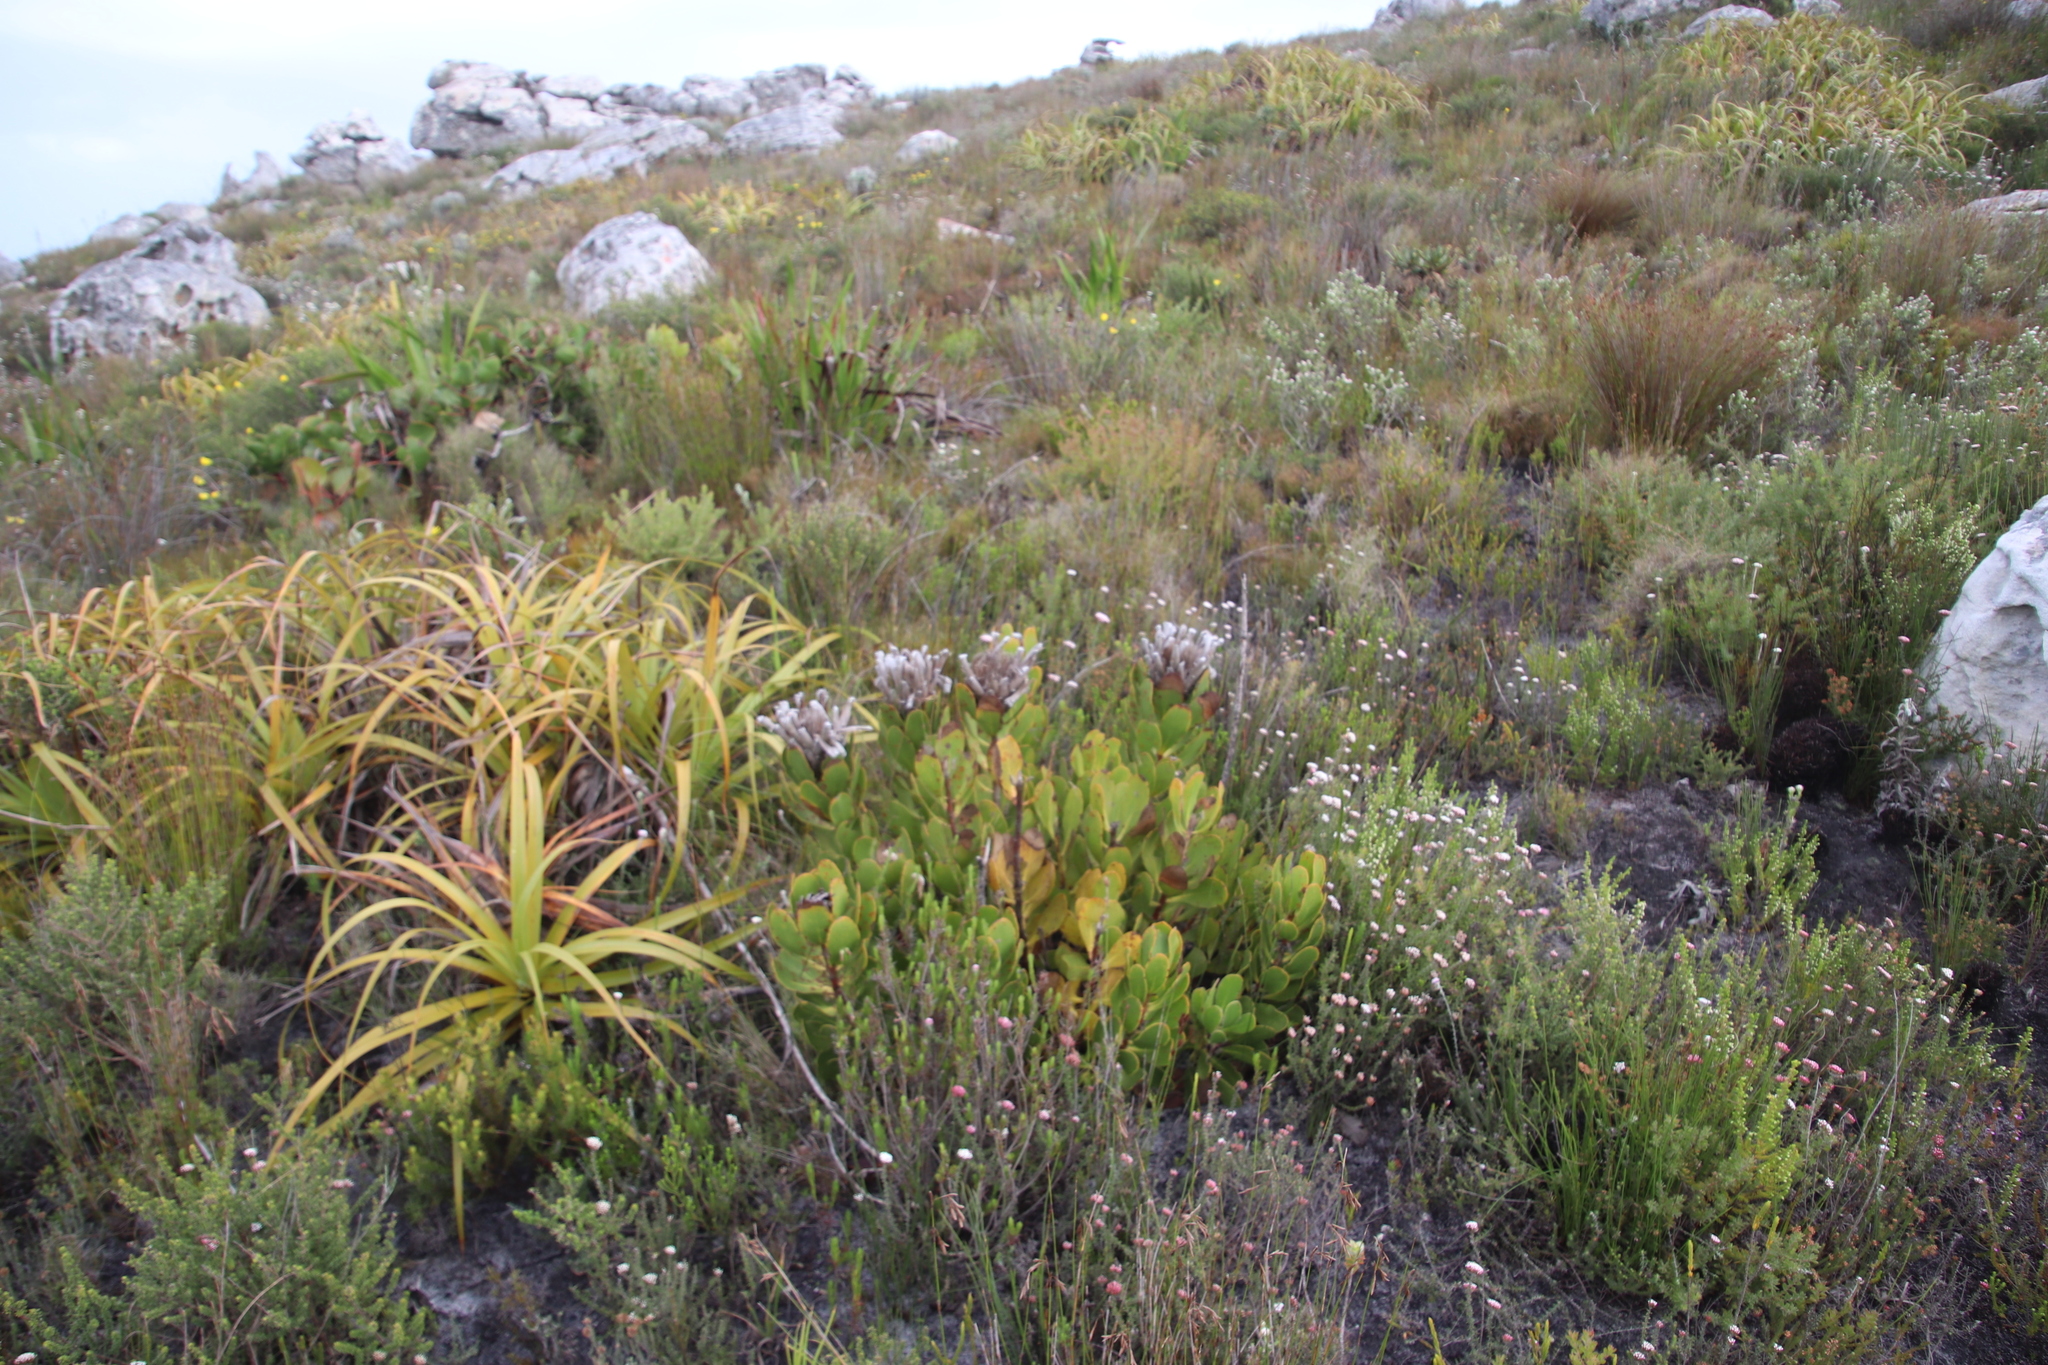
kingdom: Plantae
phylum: Tracheophyta
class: Magnoliopsida
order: Proteales
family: Proteaceae
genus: Protea
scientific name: Protea speciosa
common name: Brown-beard sugarbush
